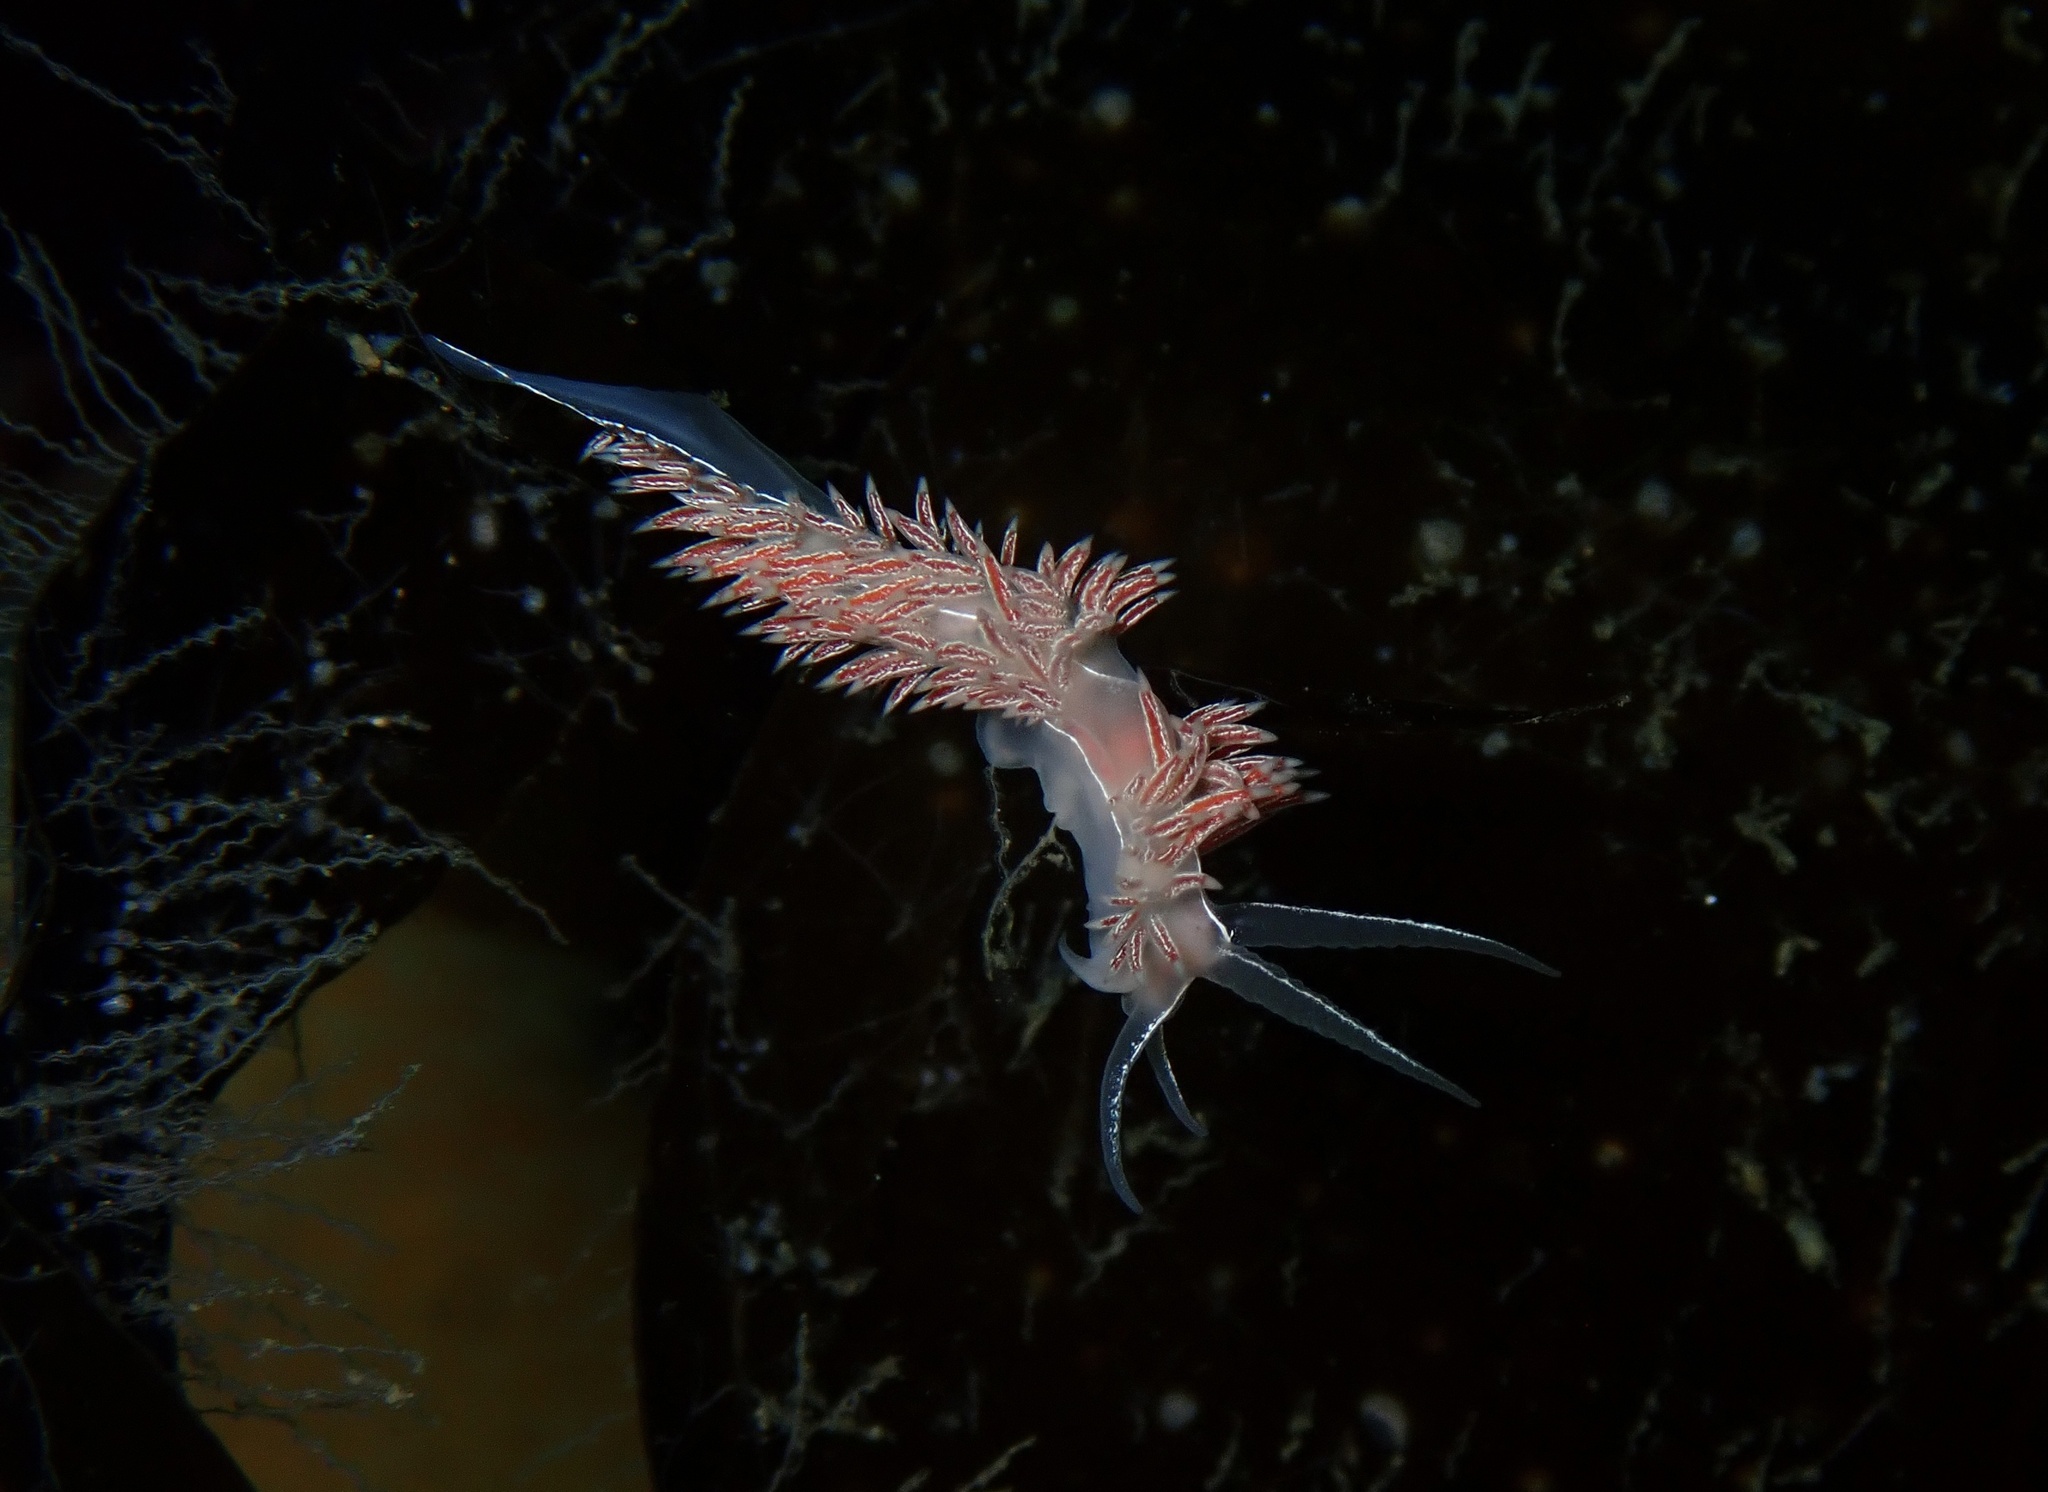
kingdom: Animalia
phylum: Mollusca
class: Gastropoda
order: Nudibranchia
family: Coryphellidae
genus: Coryphella
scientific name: Coryphella chriskaugei
